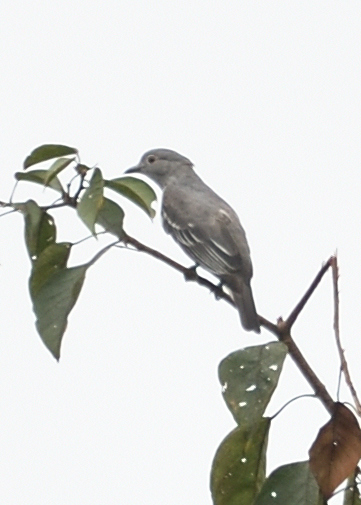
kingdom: Animalia
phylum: Chordata
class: Aves
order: Passeriformes
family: Cotingidae
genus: Carpodectes
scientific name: Carpodectes hopkei
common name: Black-tipped cotinga
